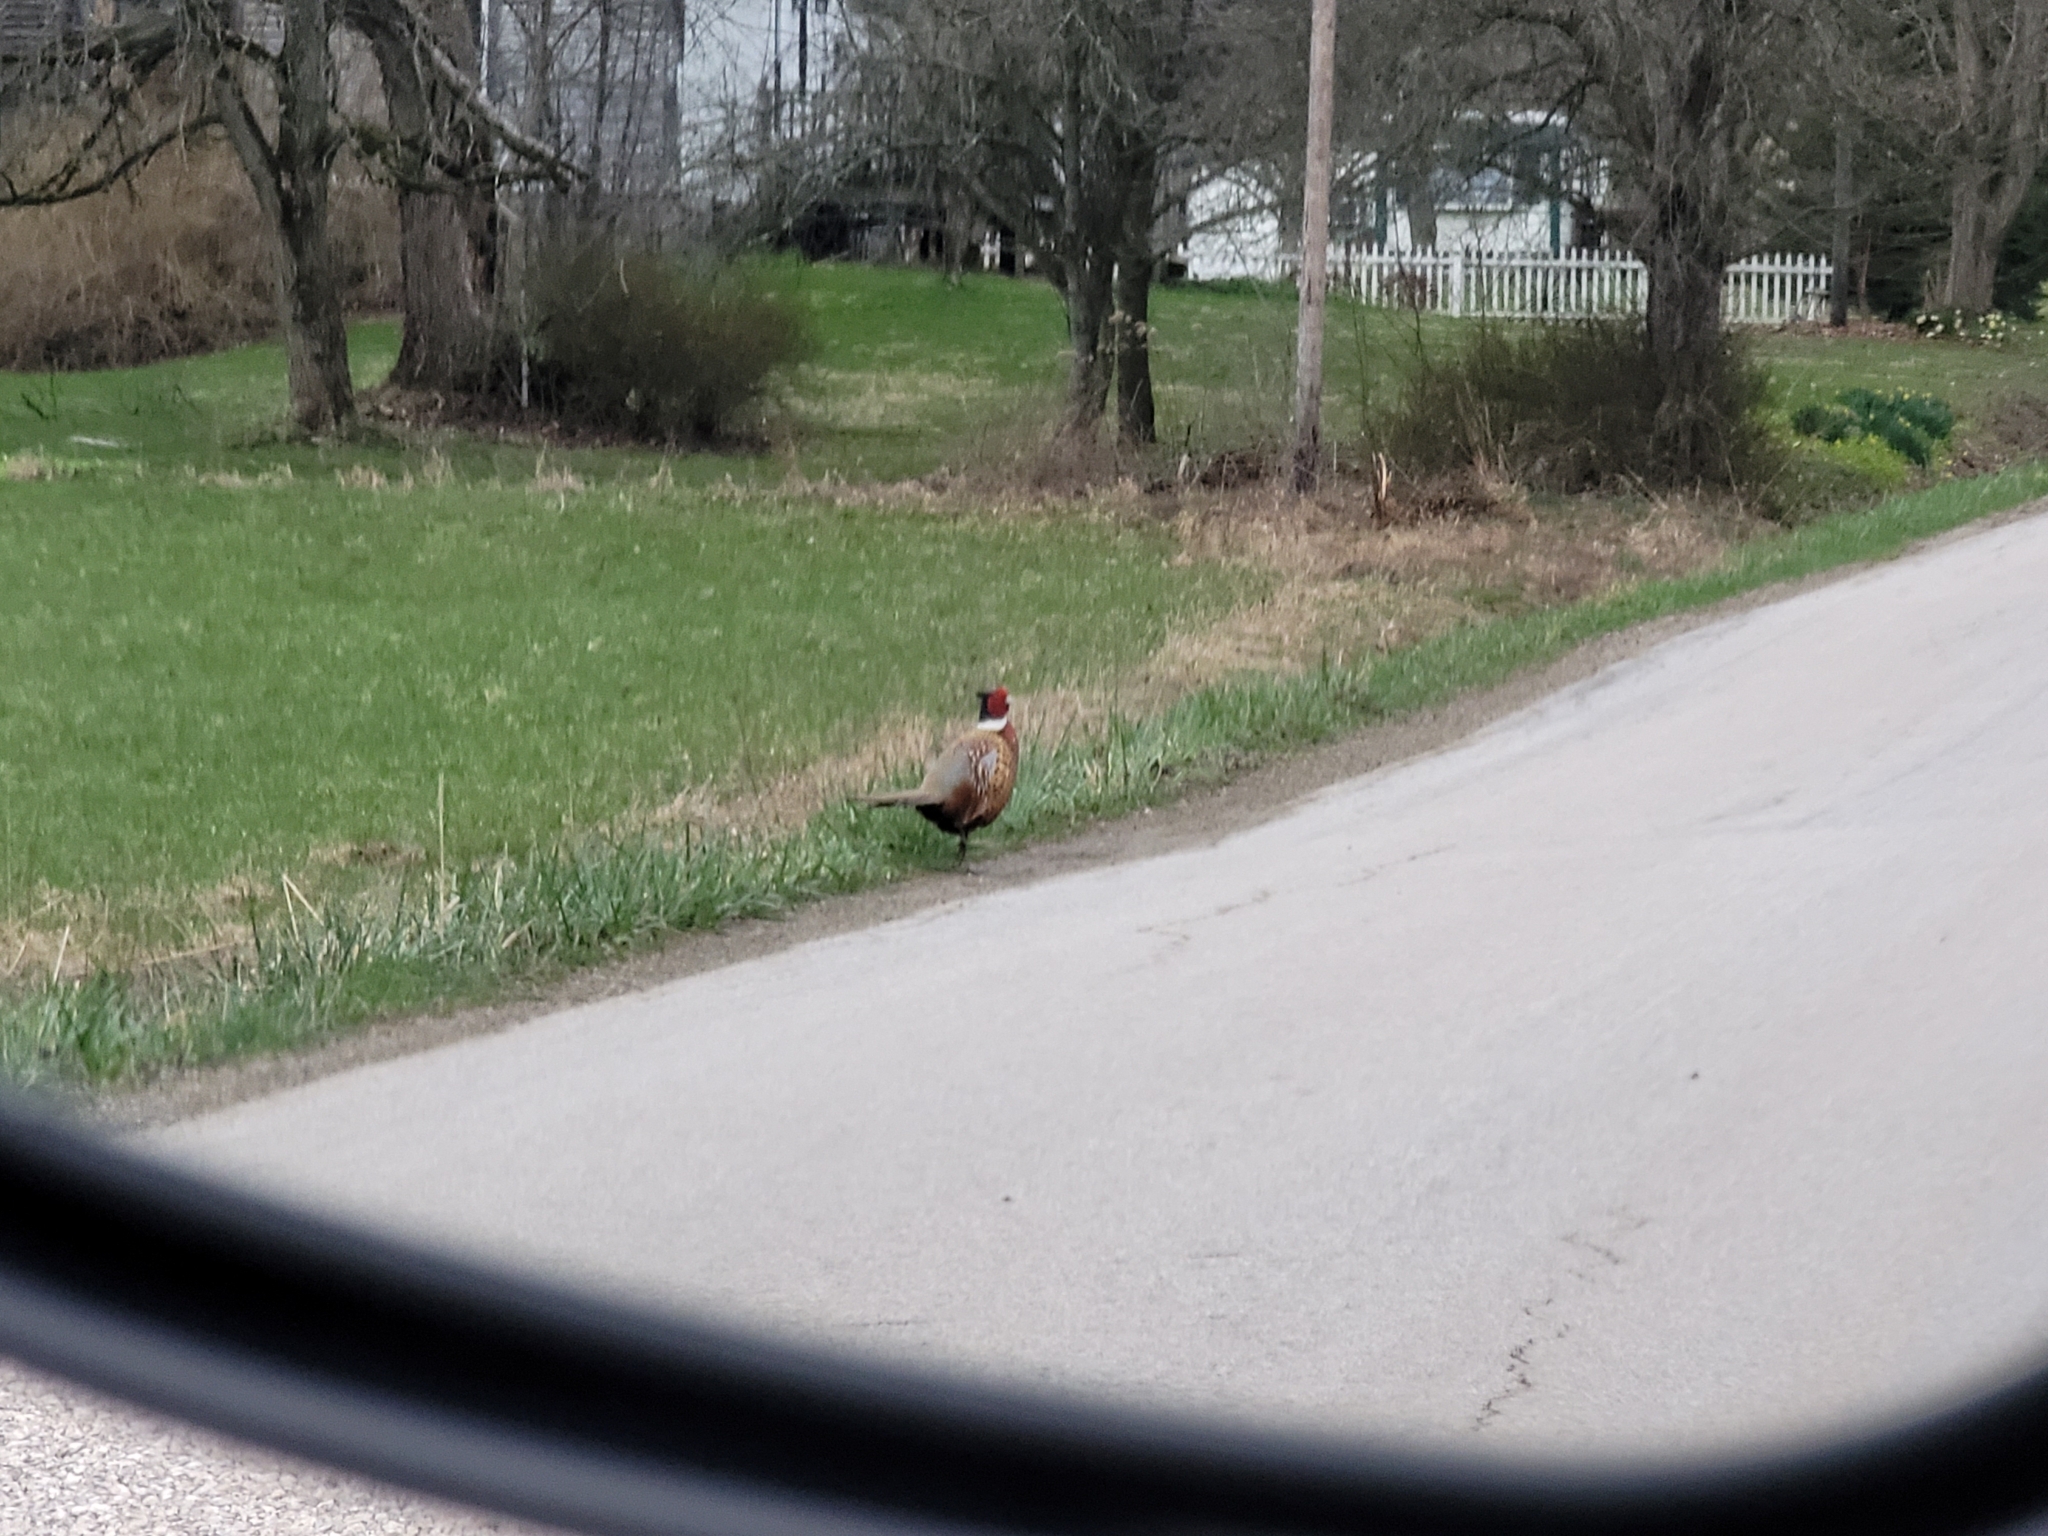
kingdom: Animalia
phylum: Chordata
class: Aves
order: Galliformes
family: Phasianidae
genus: Phasianus
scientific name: Phasianus colchicus
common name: Common pheasant
